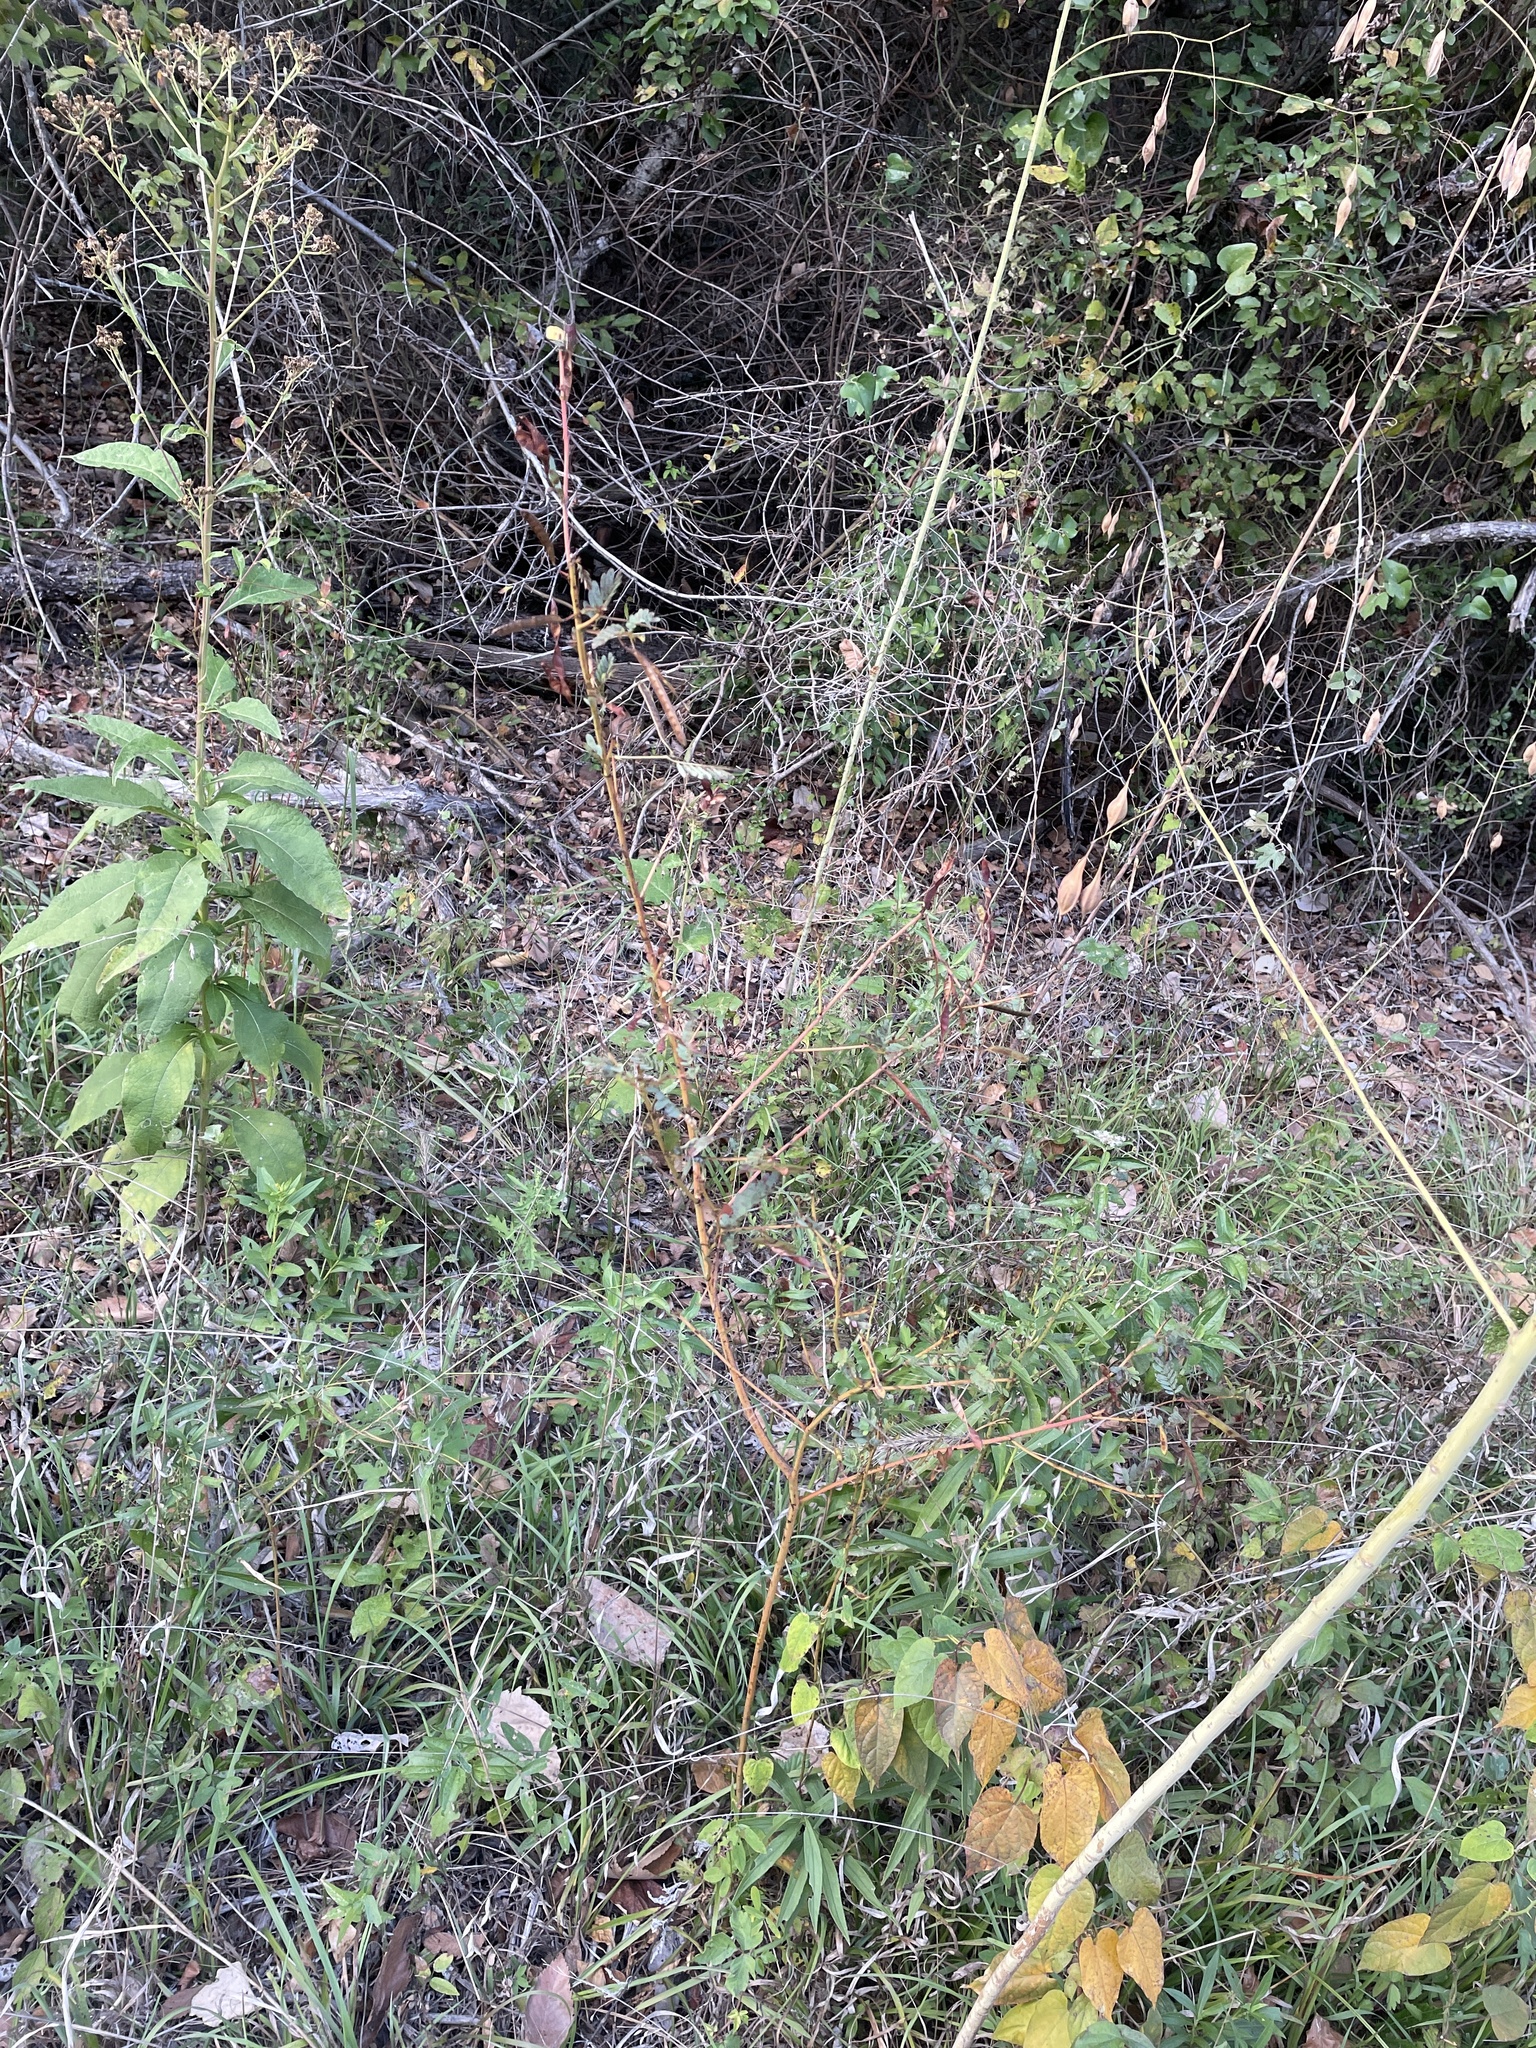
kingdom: Plantae
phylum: Tracheophyta
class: Magnoliopsida
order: Fabales
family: Fabaceae
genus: Chamaecrista
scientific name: Chamaecrista fasciculata
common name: Golden cassia
